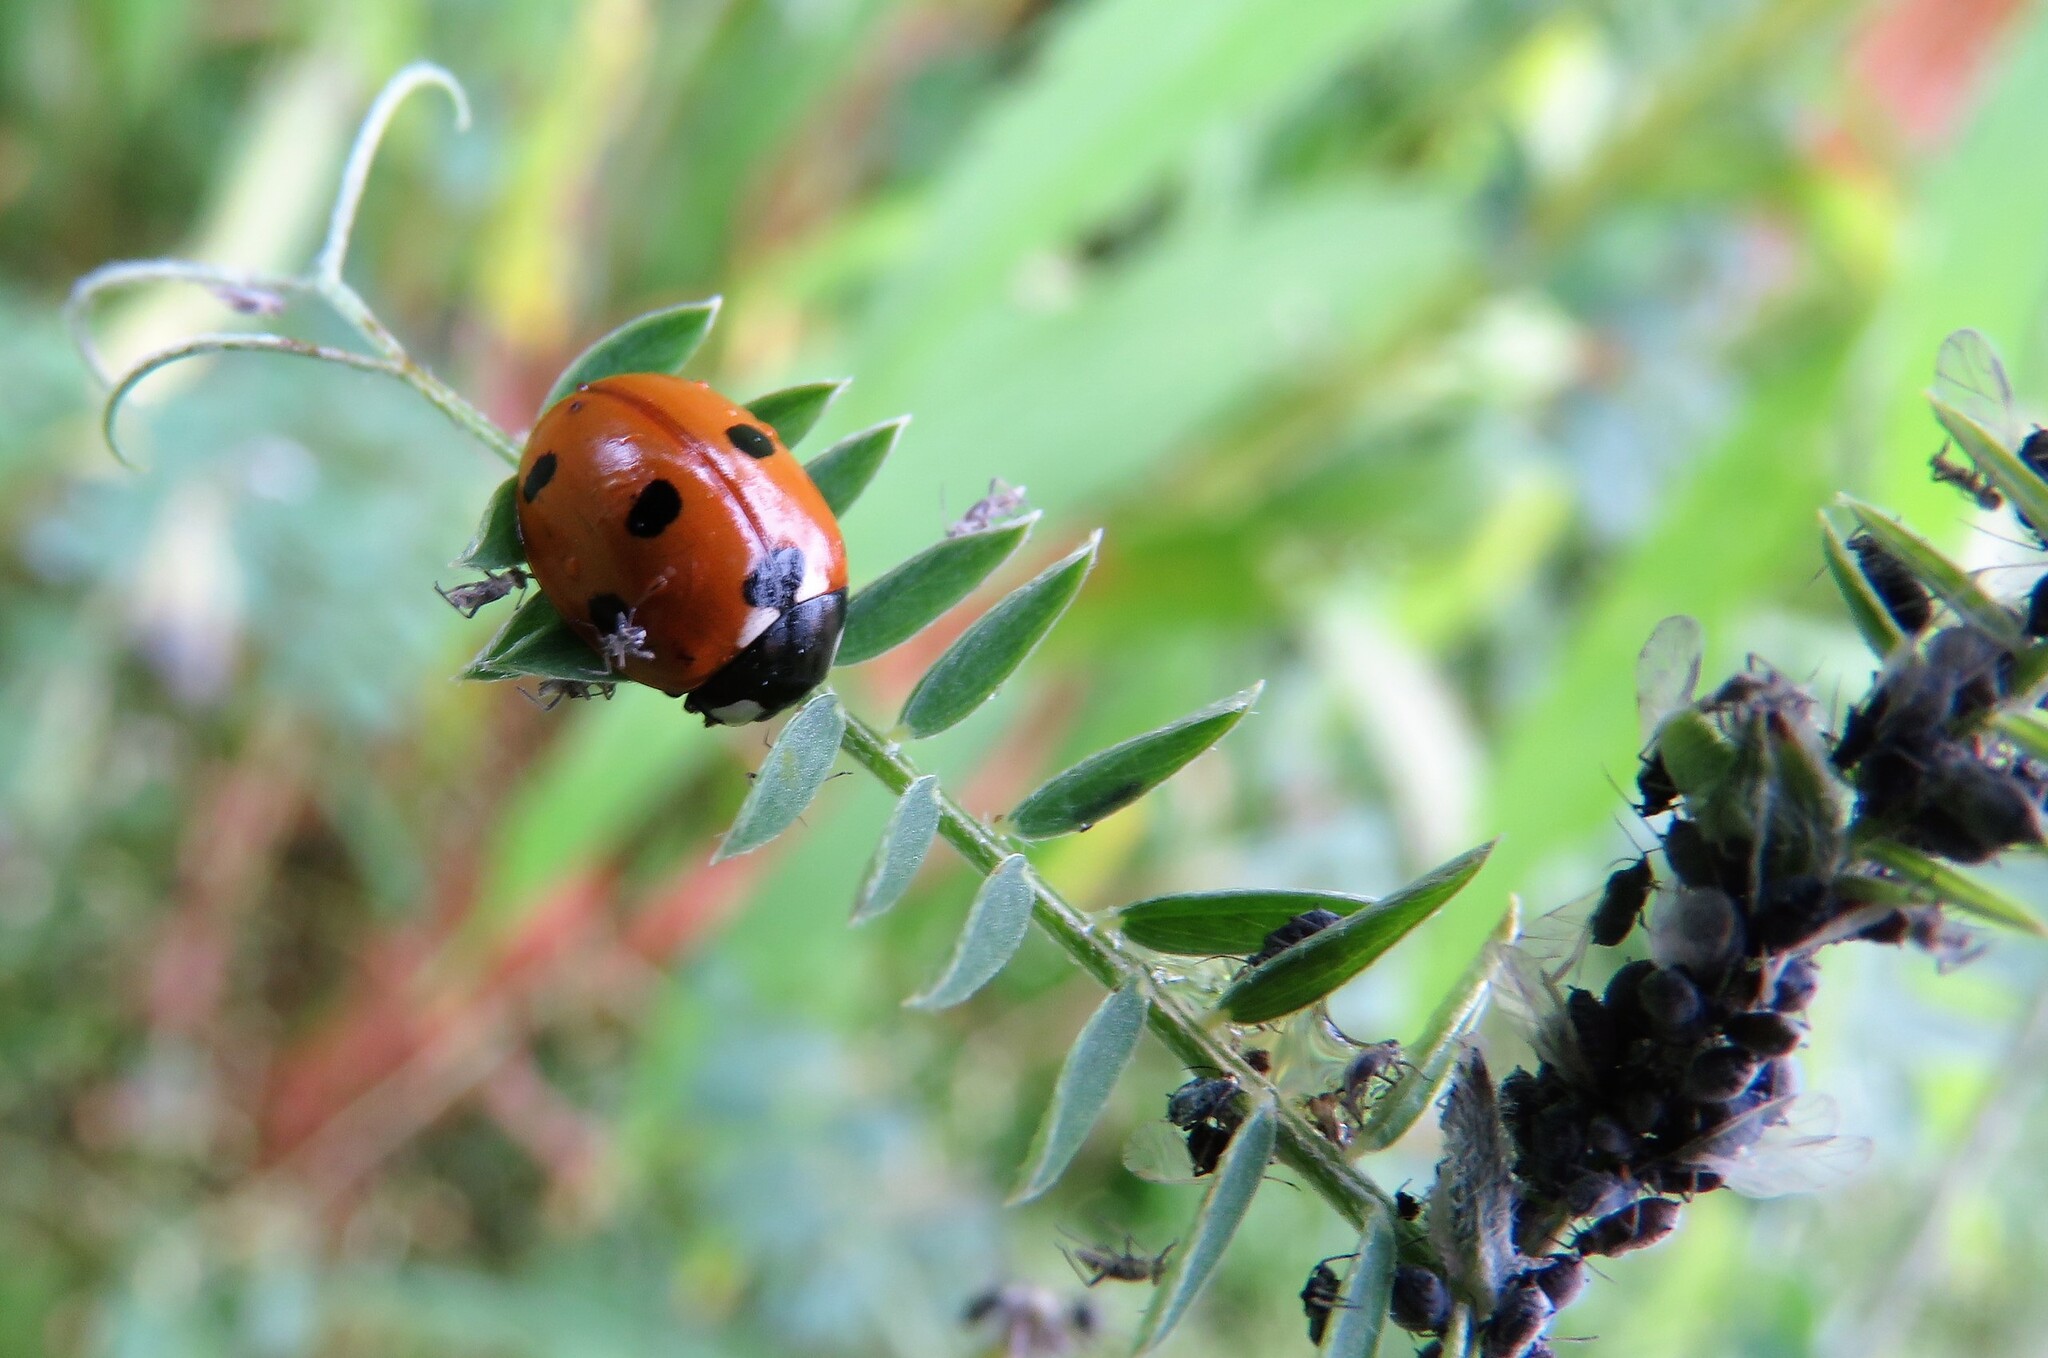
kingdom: Animalia
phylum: Arthropoda
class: Insecta
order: Coleoptera
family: Coccinellidae
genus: Coccinella
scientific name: Coccinella septempunctata
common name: Sevenspotted lady beetle
